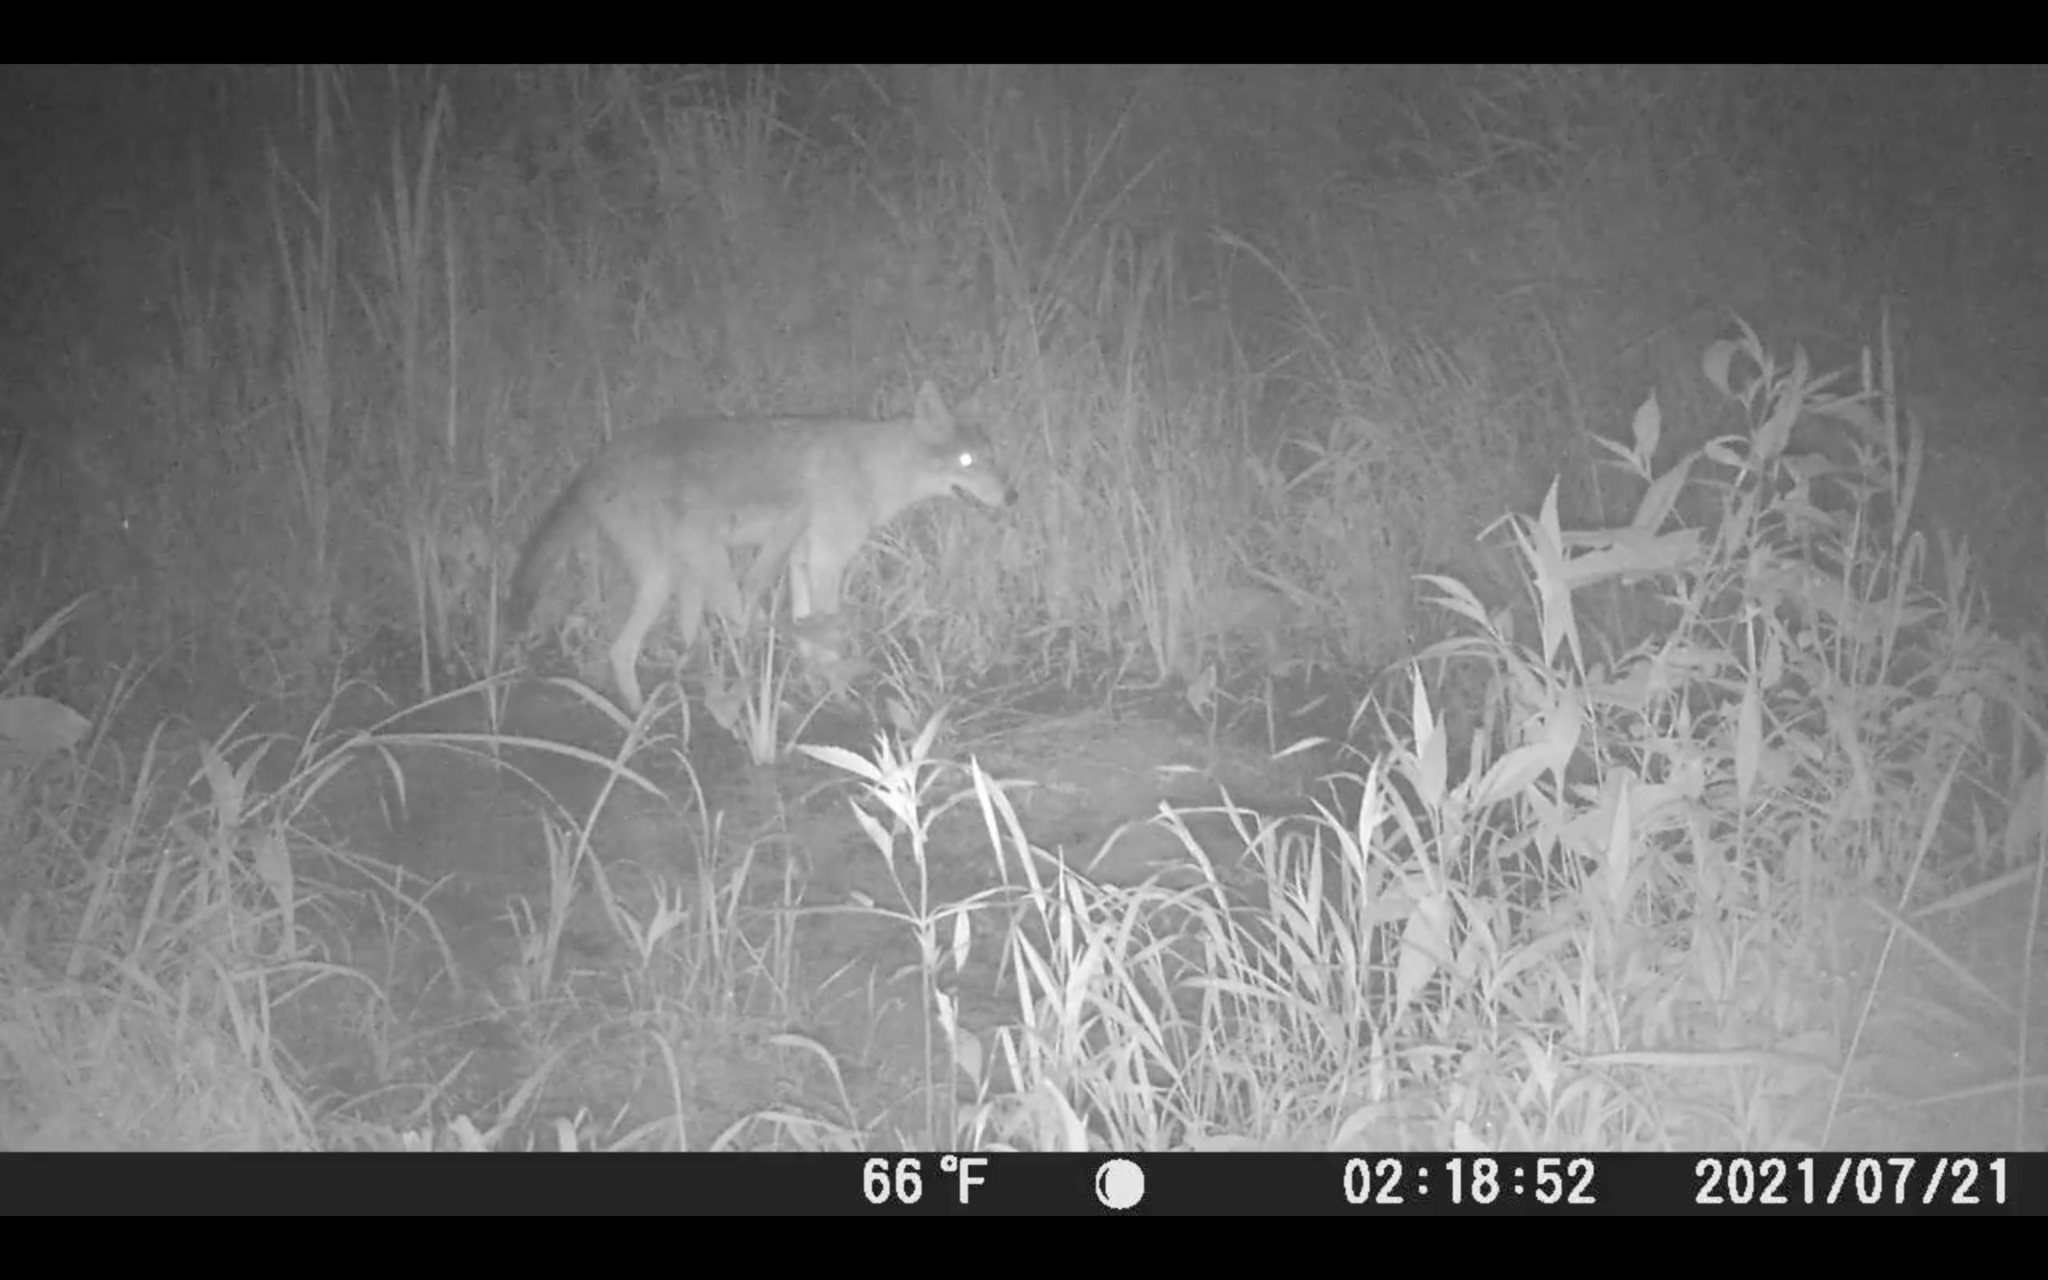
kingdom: Animalia
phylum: Chordata
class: Mammalia
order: Carnivora
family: Canidae
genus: Canis
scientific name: Canis latrans
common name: Coyote
